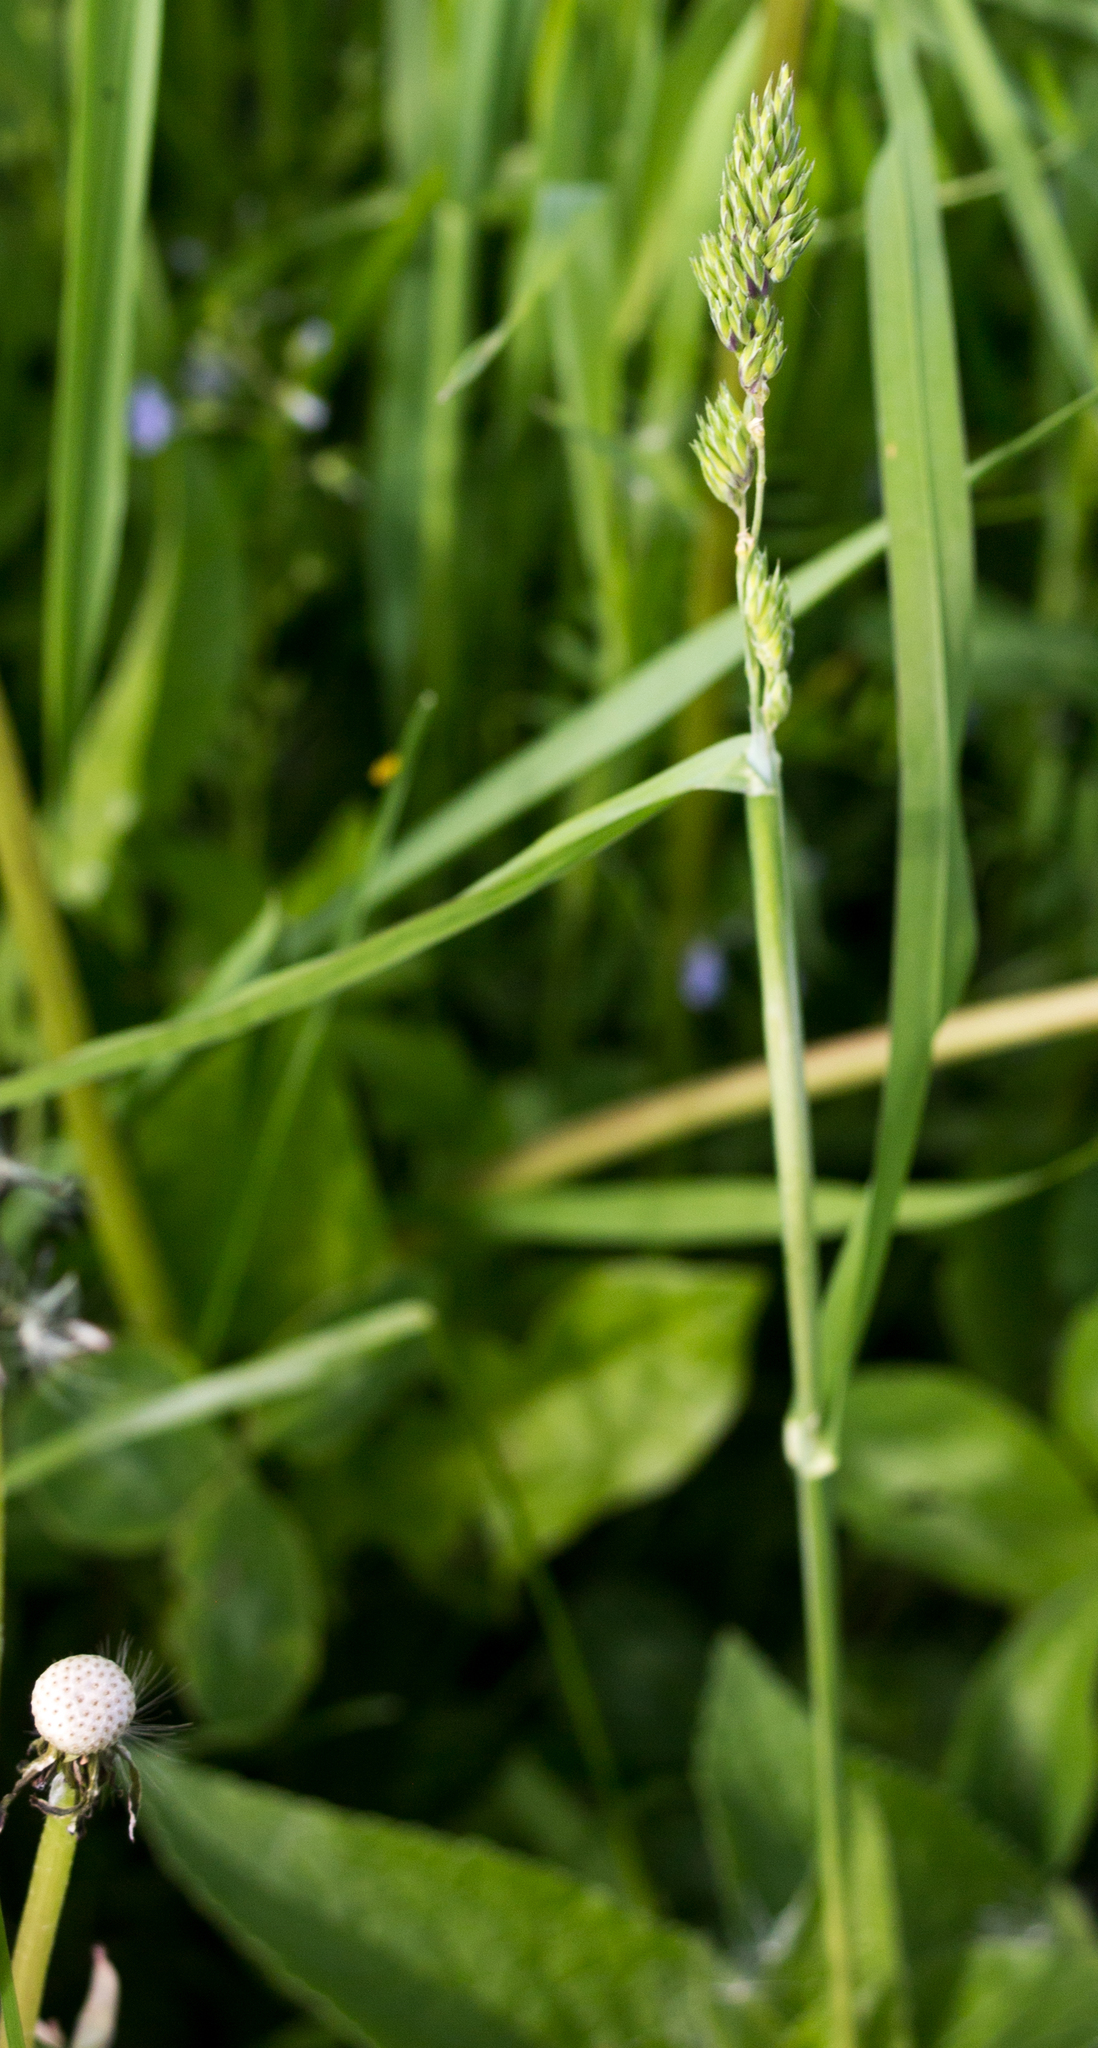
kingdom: Plantae
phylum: Tracheophyta
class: Liliopsida
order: Poales
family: Poaceae
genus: Dactylis
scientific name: Dactylis glomerata
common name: Orchardgrass
